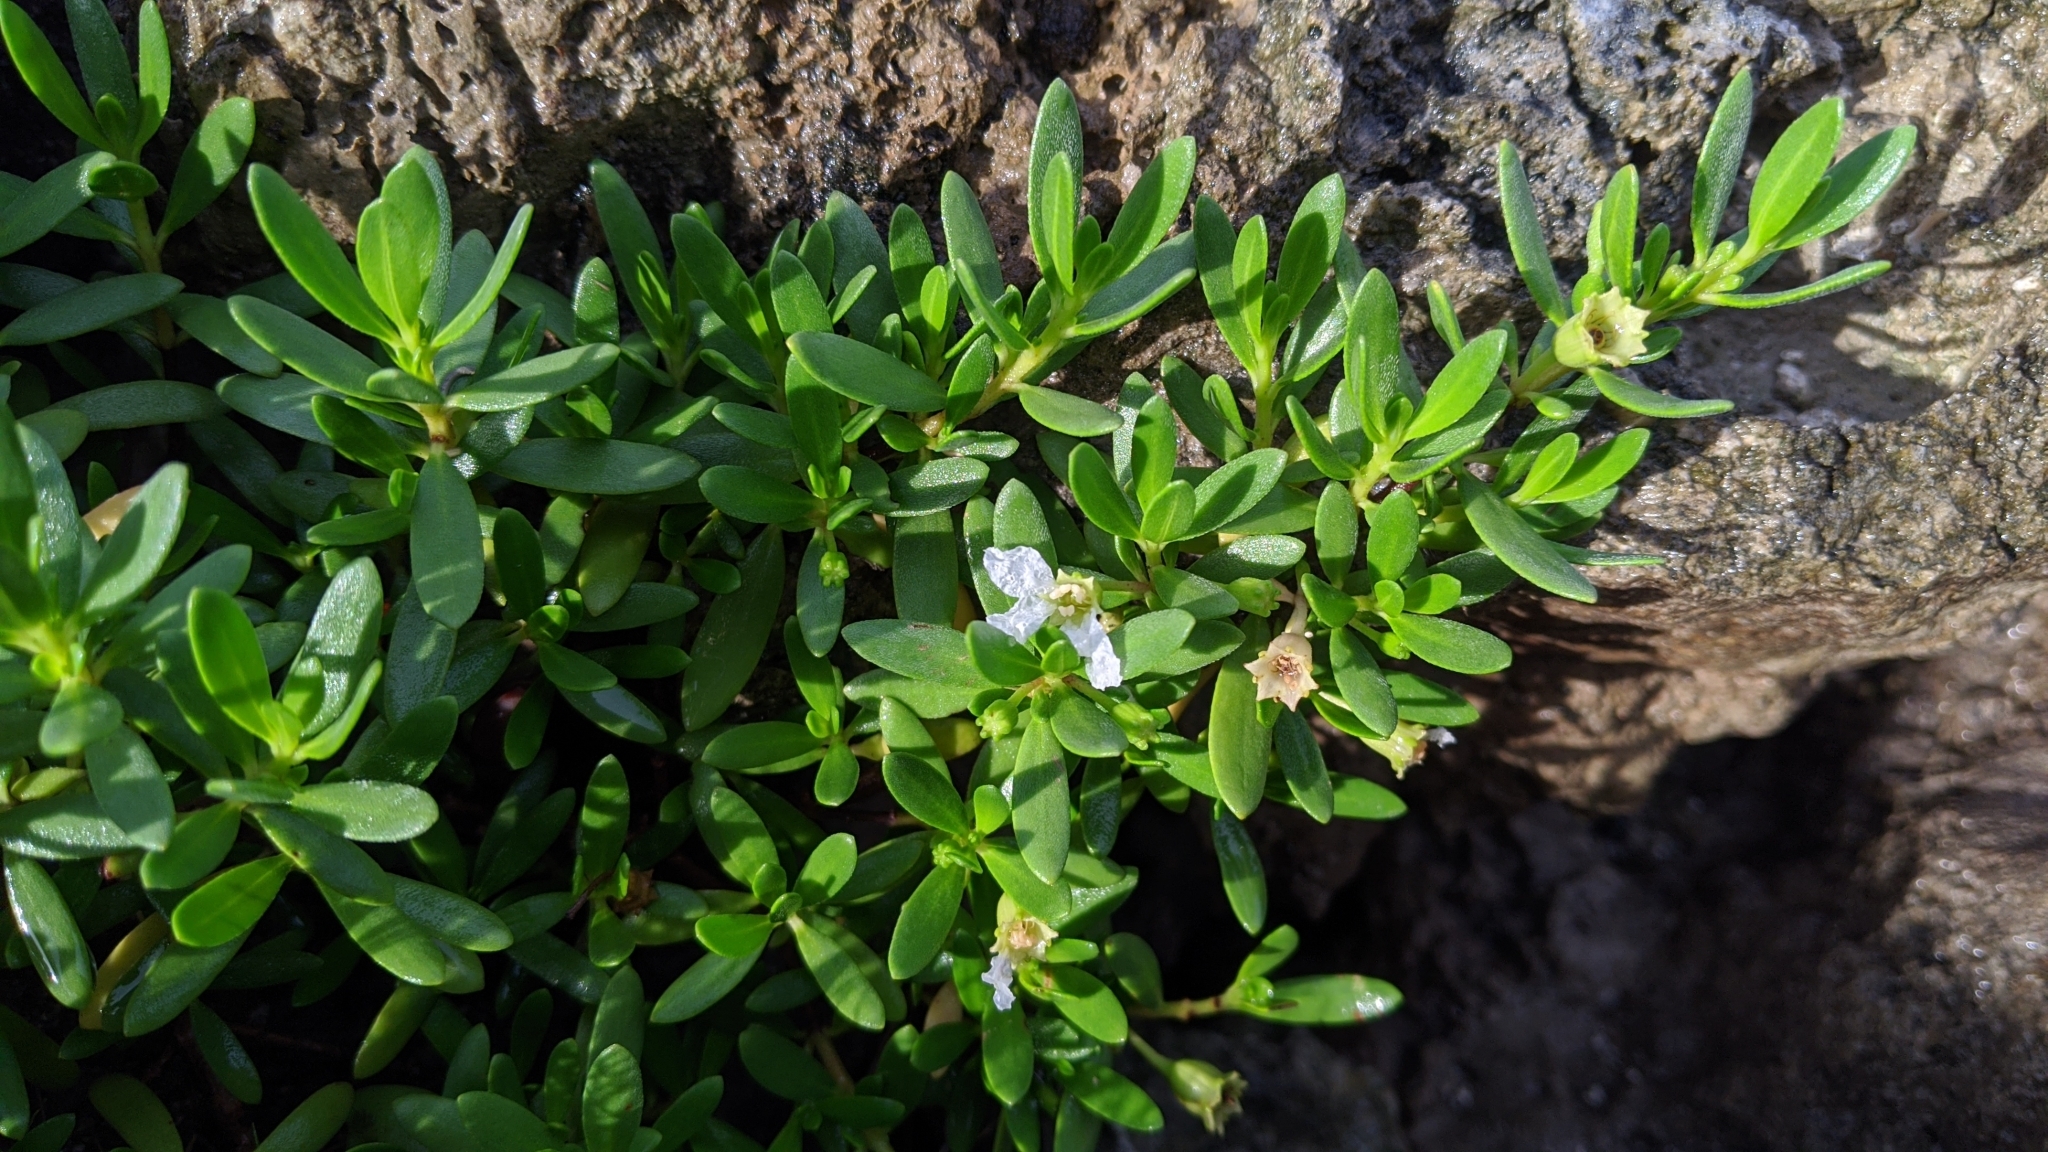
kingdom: Plantae
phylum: Tracheophyta
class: Magnoliopsida
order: Myrtales
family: Lythraceae
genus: Pemphis
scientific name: Pemphis acidula
